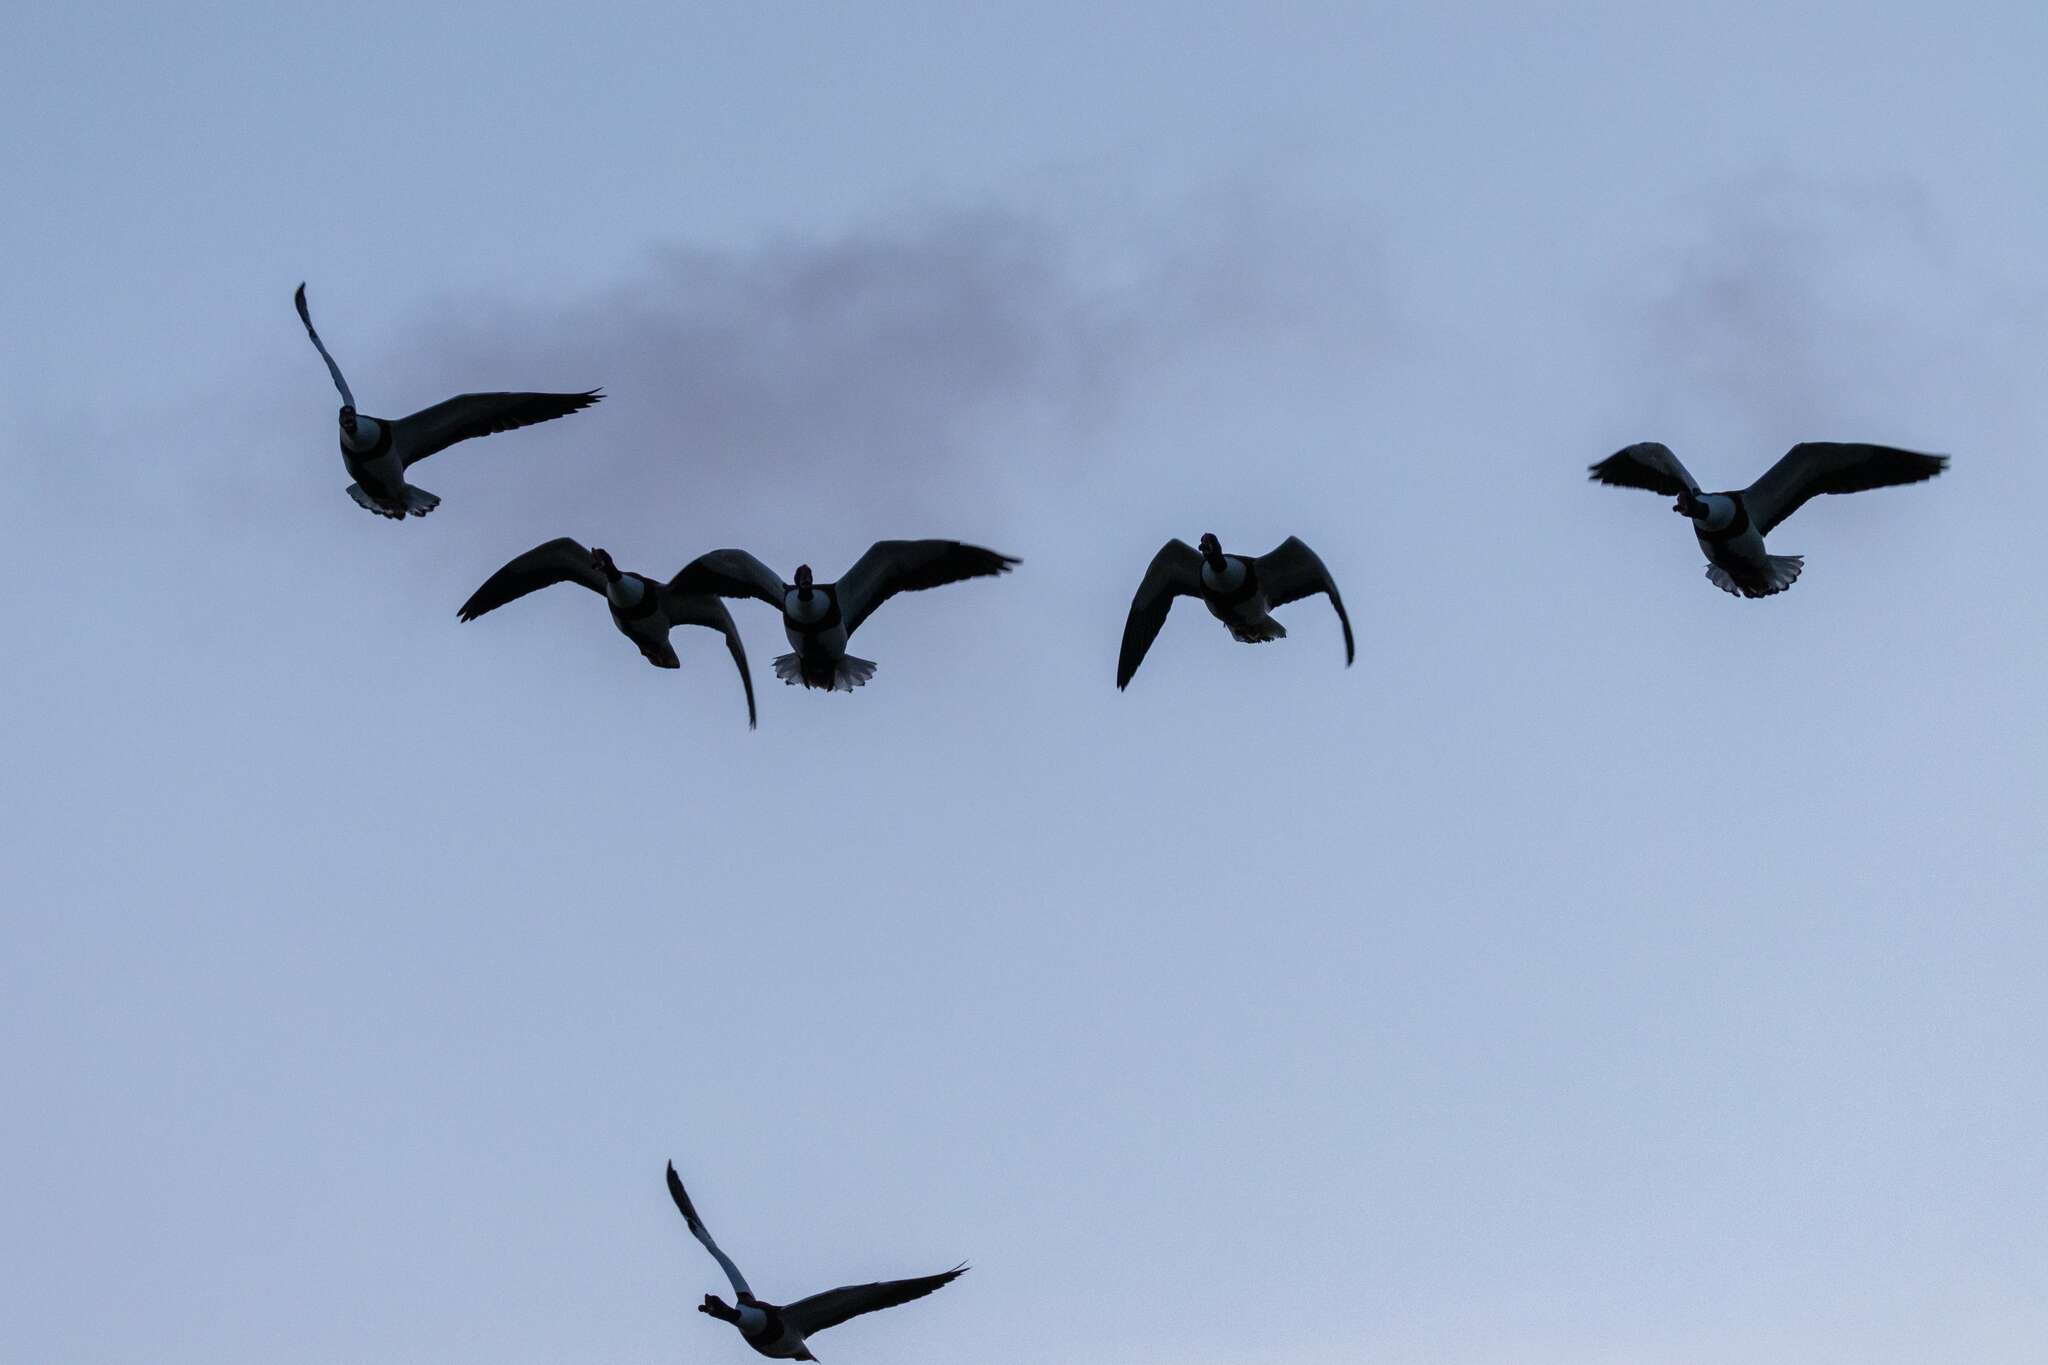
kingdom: Animalia
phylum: Chordata
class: Aves
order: Anseriformes
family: Anatidae
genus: Tadorna
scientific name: Tadorna tadorna
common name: Common shelduck
